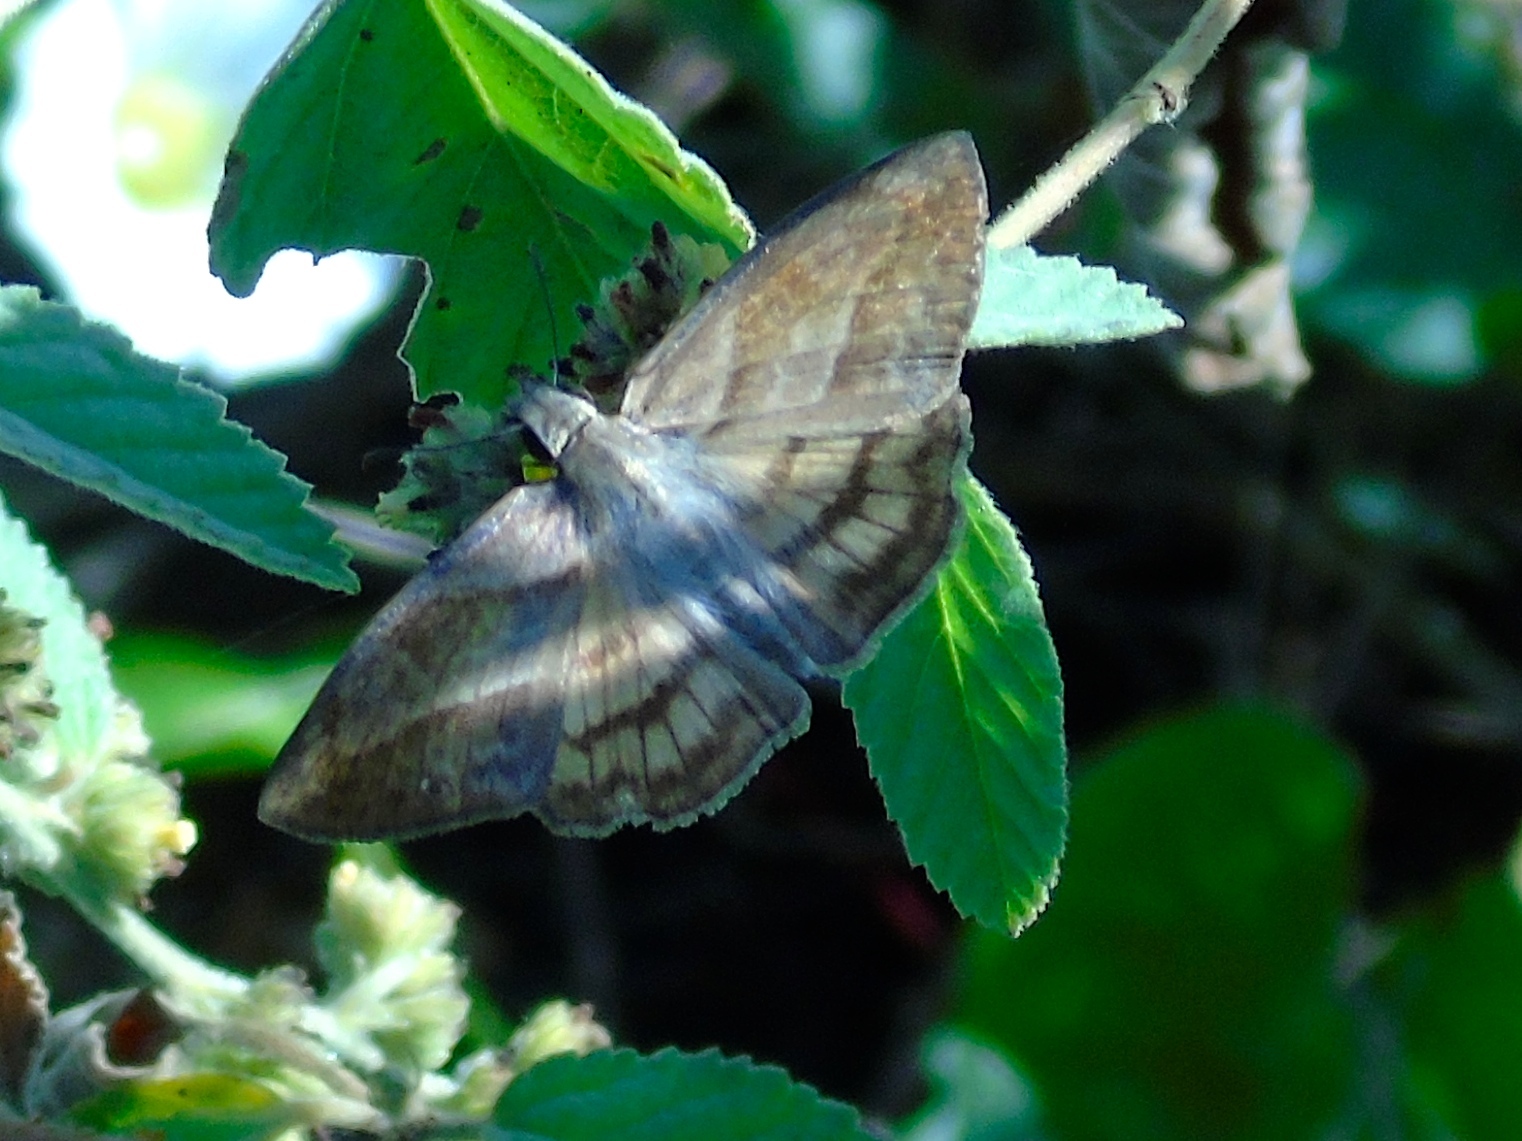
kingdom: Animalia
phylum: Arthropoda
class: Insecta
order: Lepidoptera
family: Hesperiidae
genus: Timochares
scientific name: Timochares trifasciata
